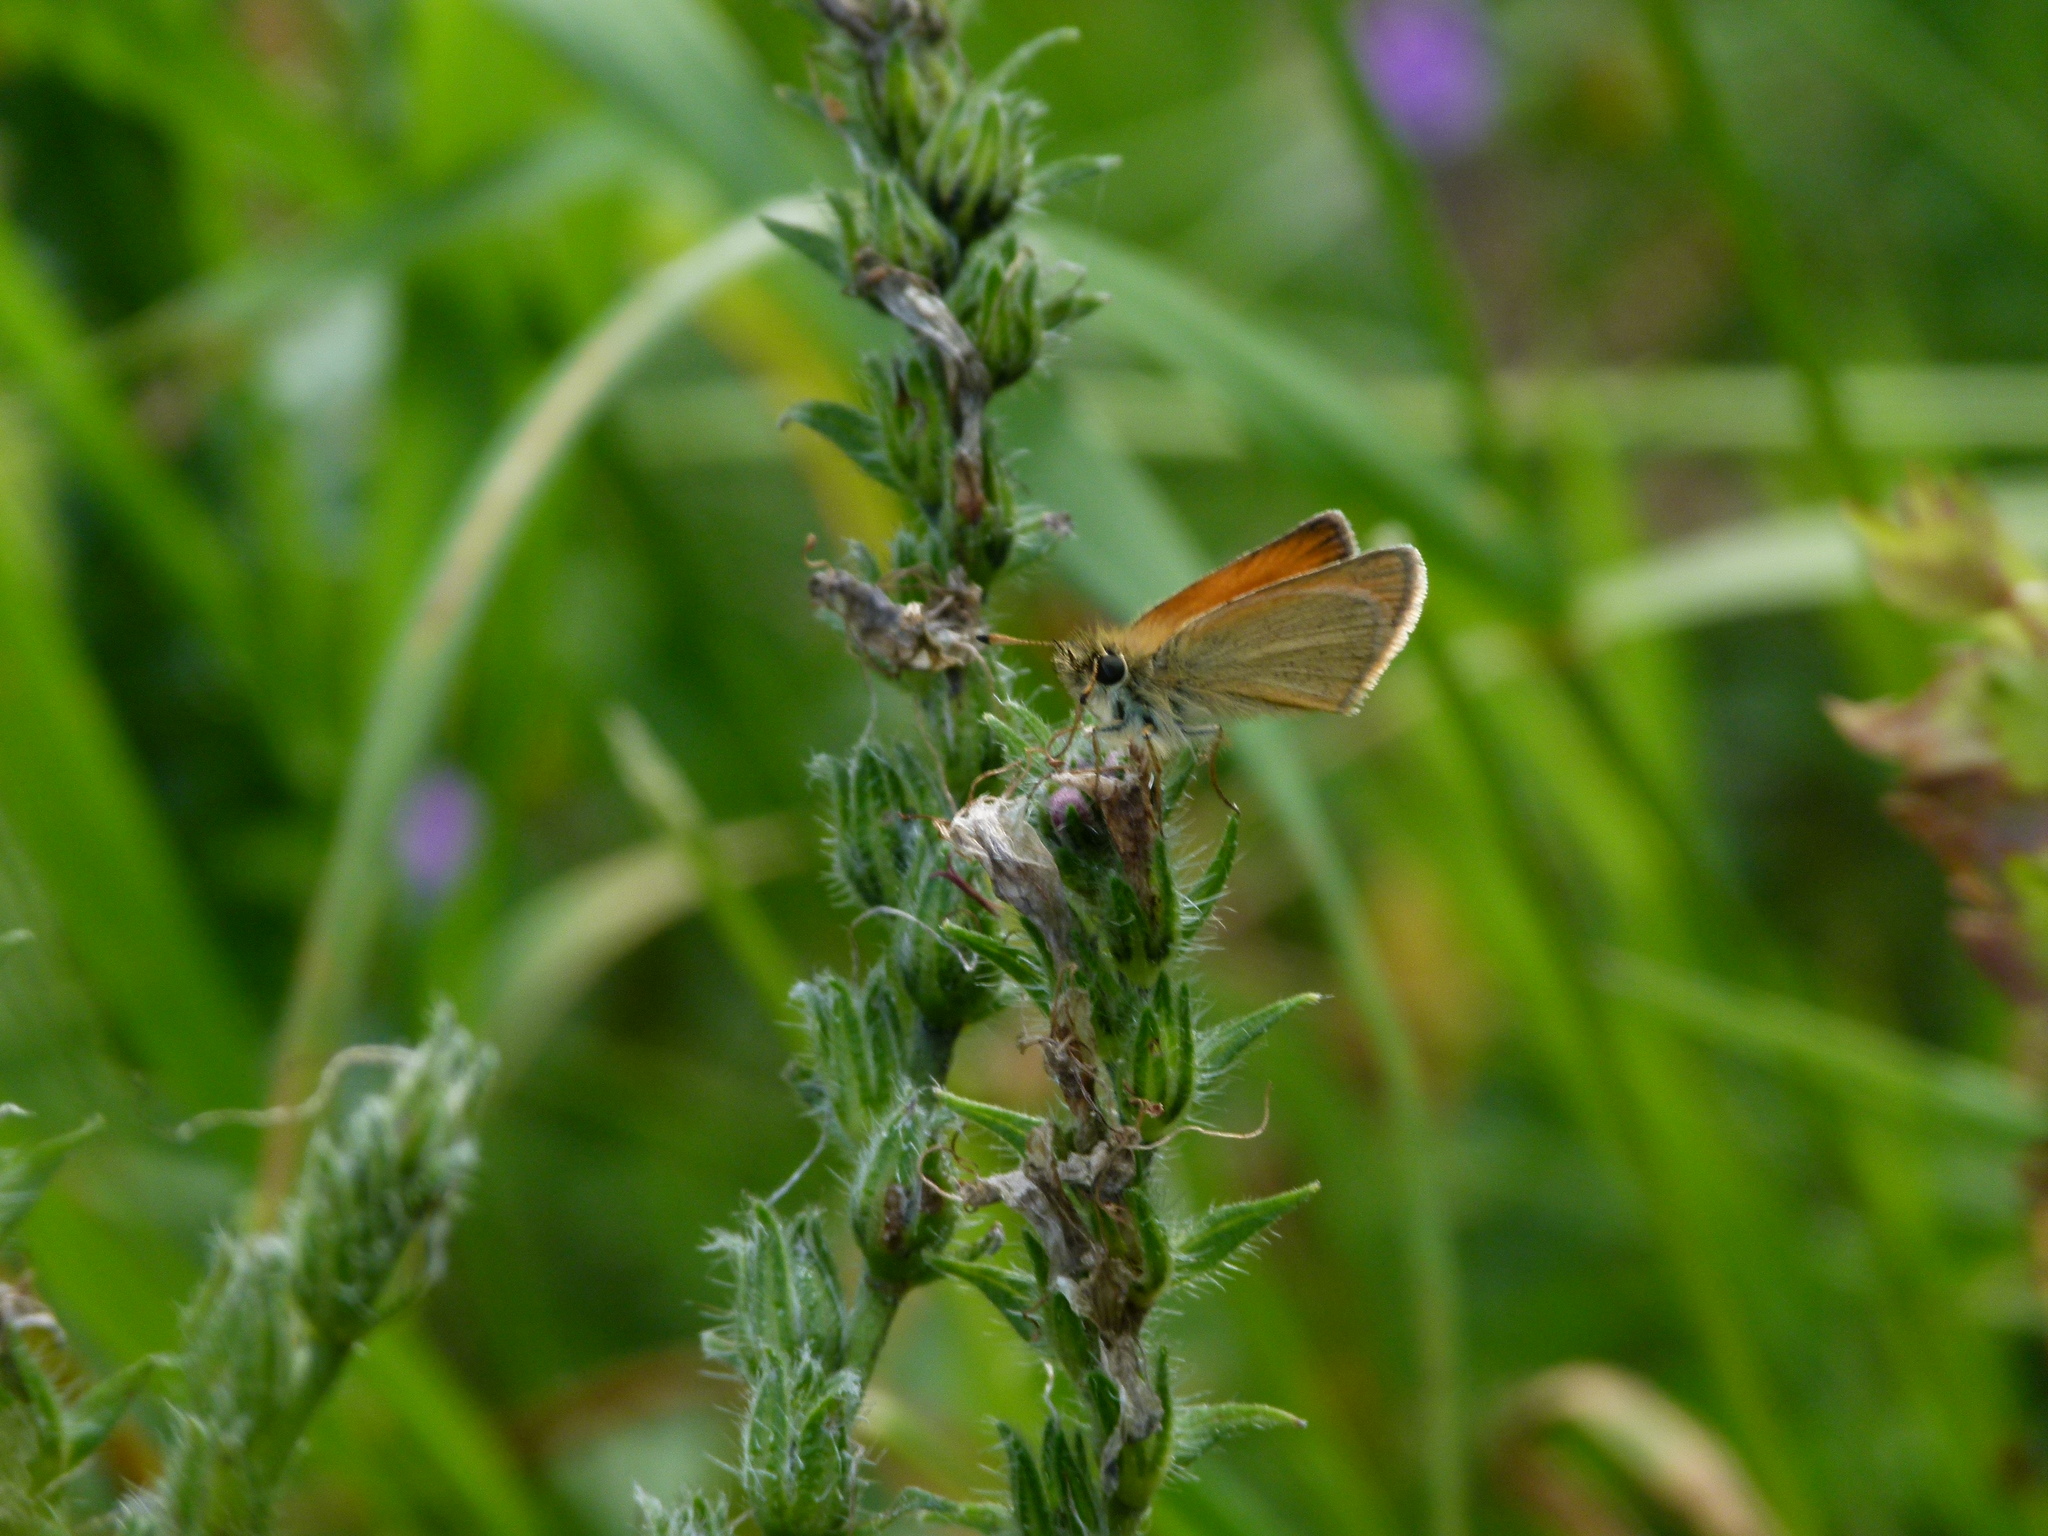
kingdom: Animalia
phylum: Arthropoda
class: Insecta
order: Lepidoptera
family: Hesperiidae
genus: Thymelicus
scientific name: Thymelicus lineola
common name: Essex skipper
